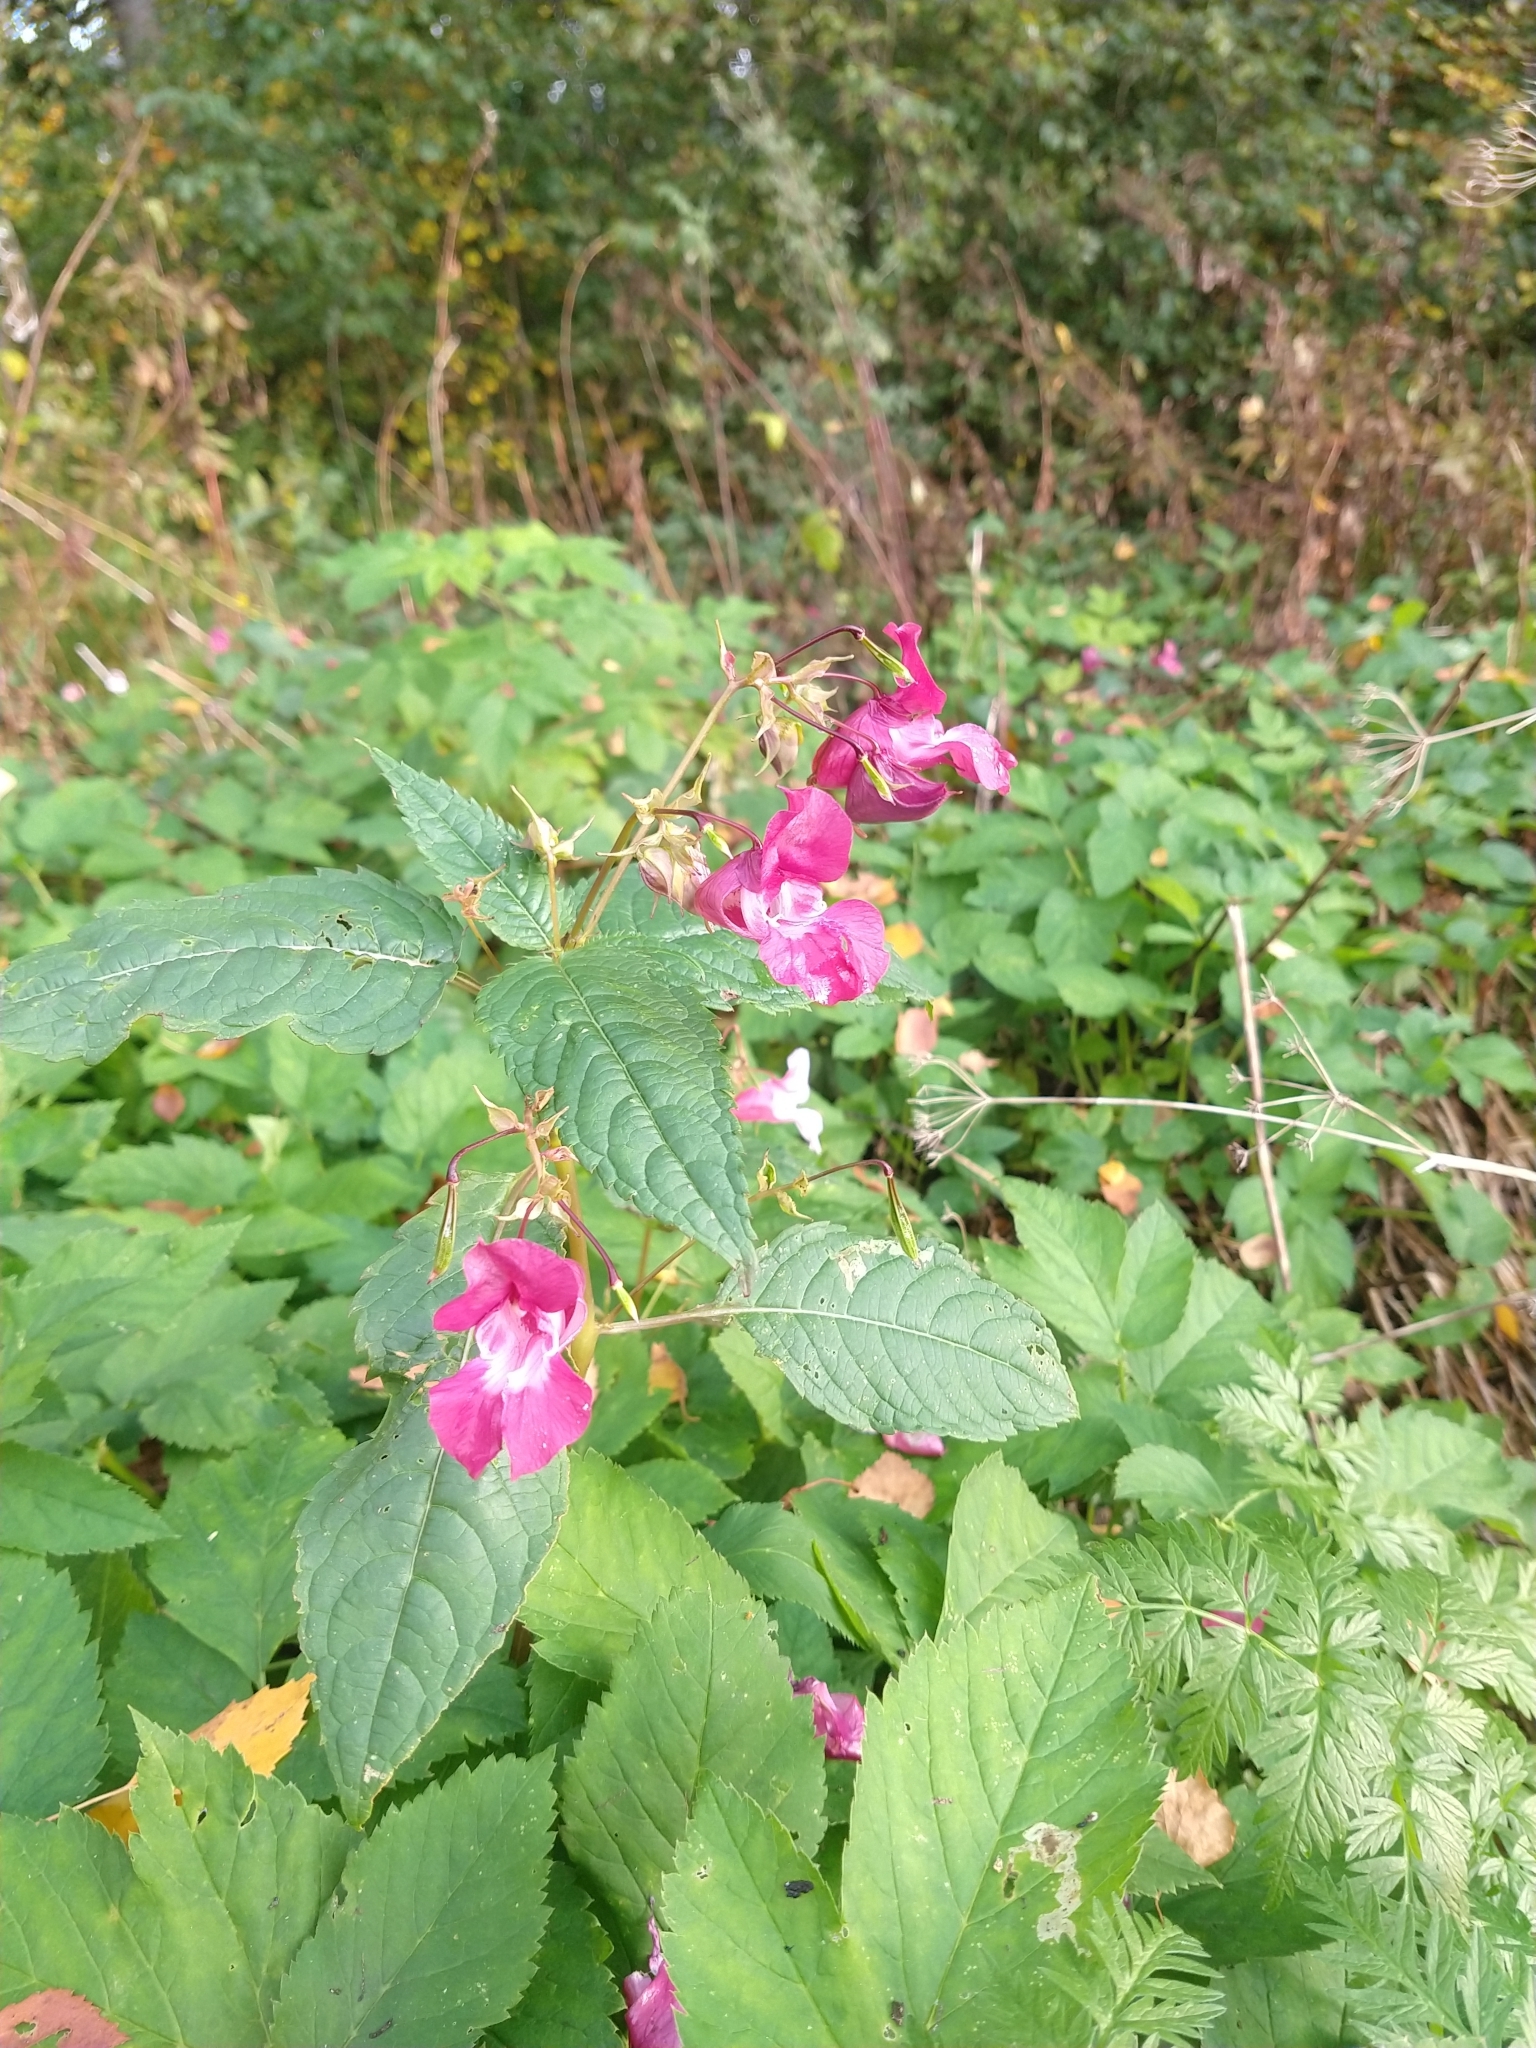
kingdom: Plantae
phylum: Tracheophyta
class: Magnoliopsida
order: Ericales
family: Balsaminaceae
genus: Impatiens
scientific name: Impatiens glandulifera
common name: Himalayan balsam
